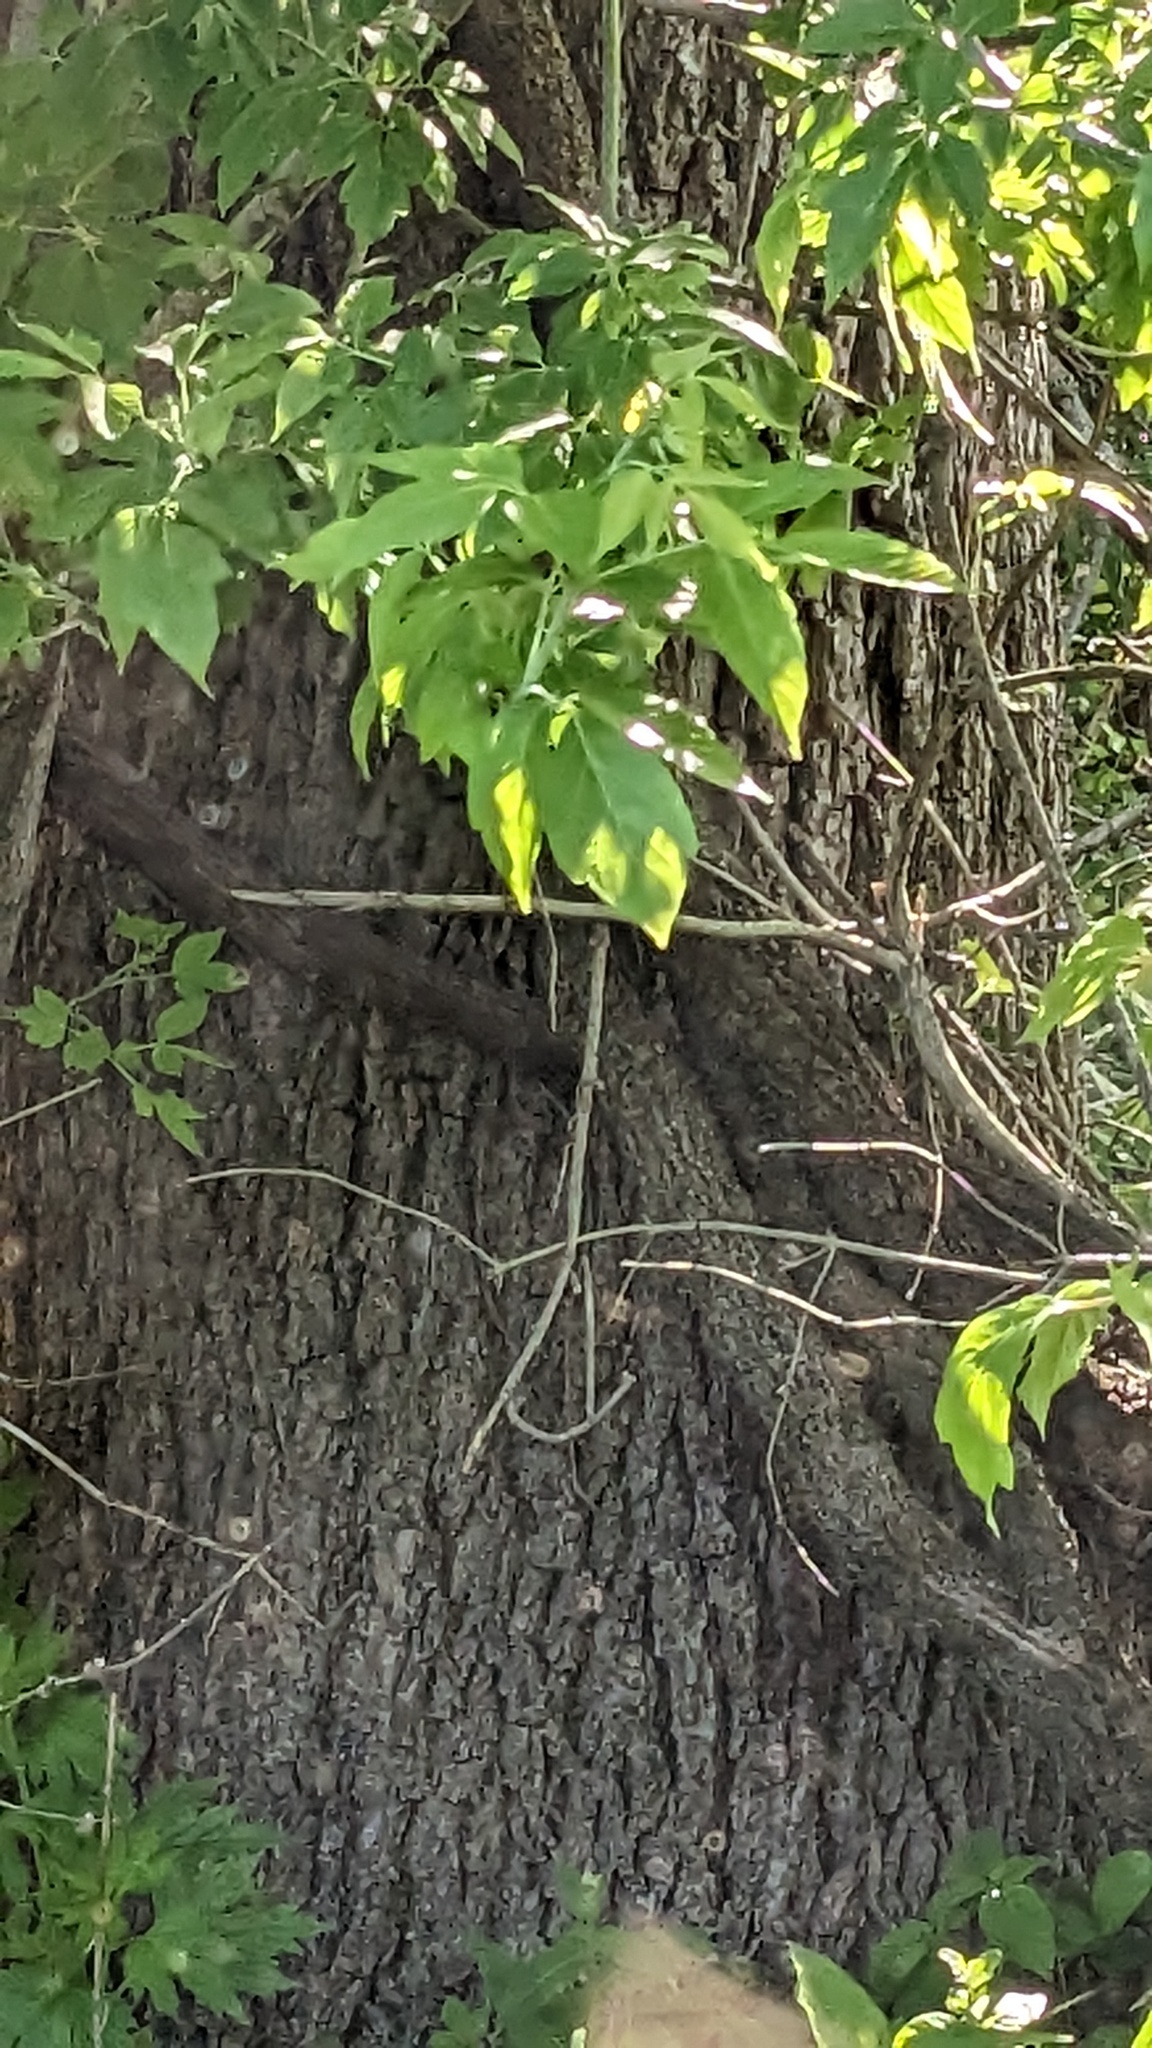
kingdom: Plantae
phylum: Tracheophyta
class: Magnoliopsida
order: Sapindales
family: Sapindaceae
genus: Acer
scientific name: Acer negundo
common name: Ashleaf maple
